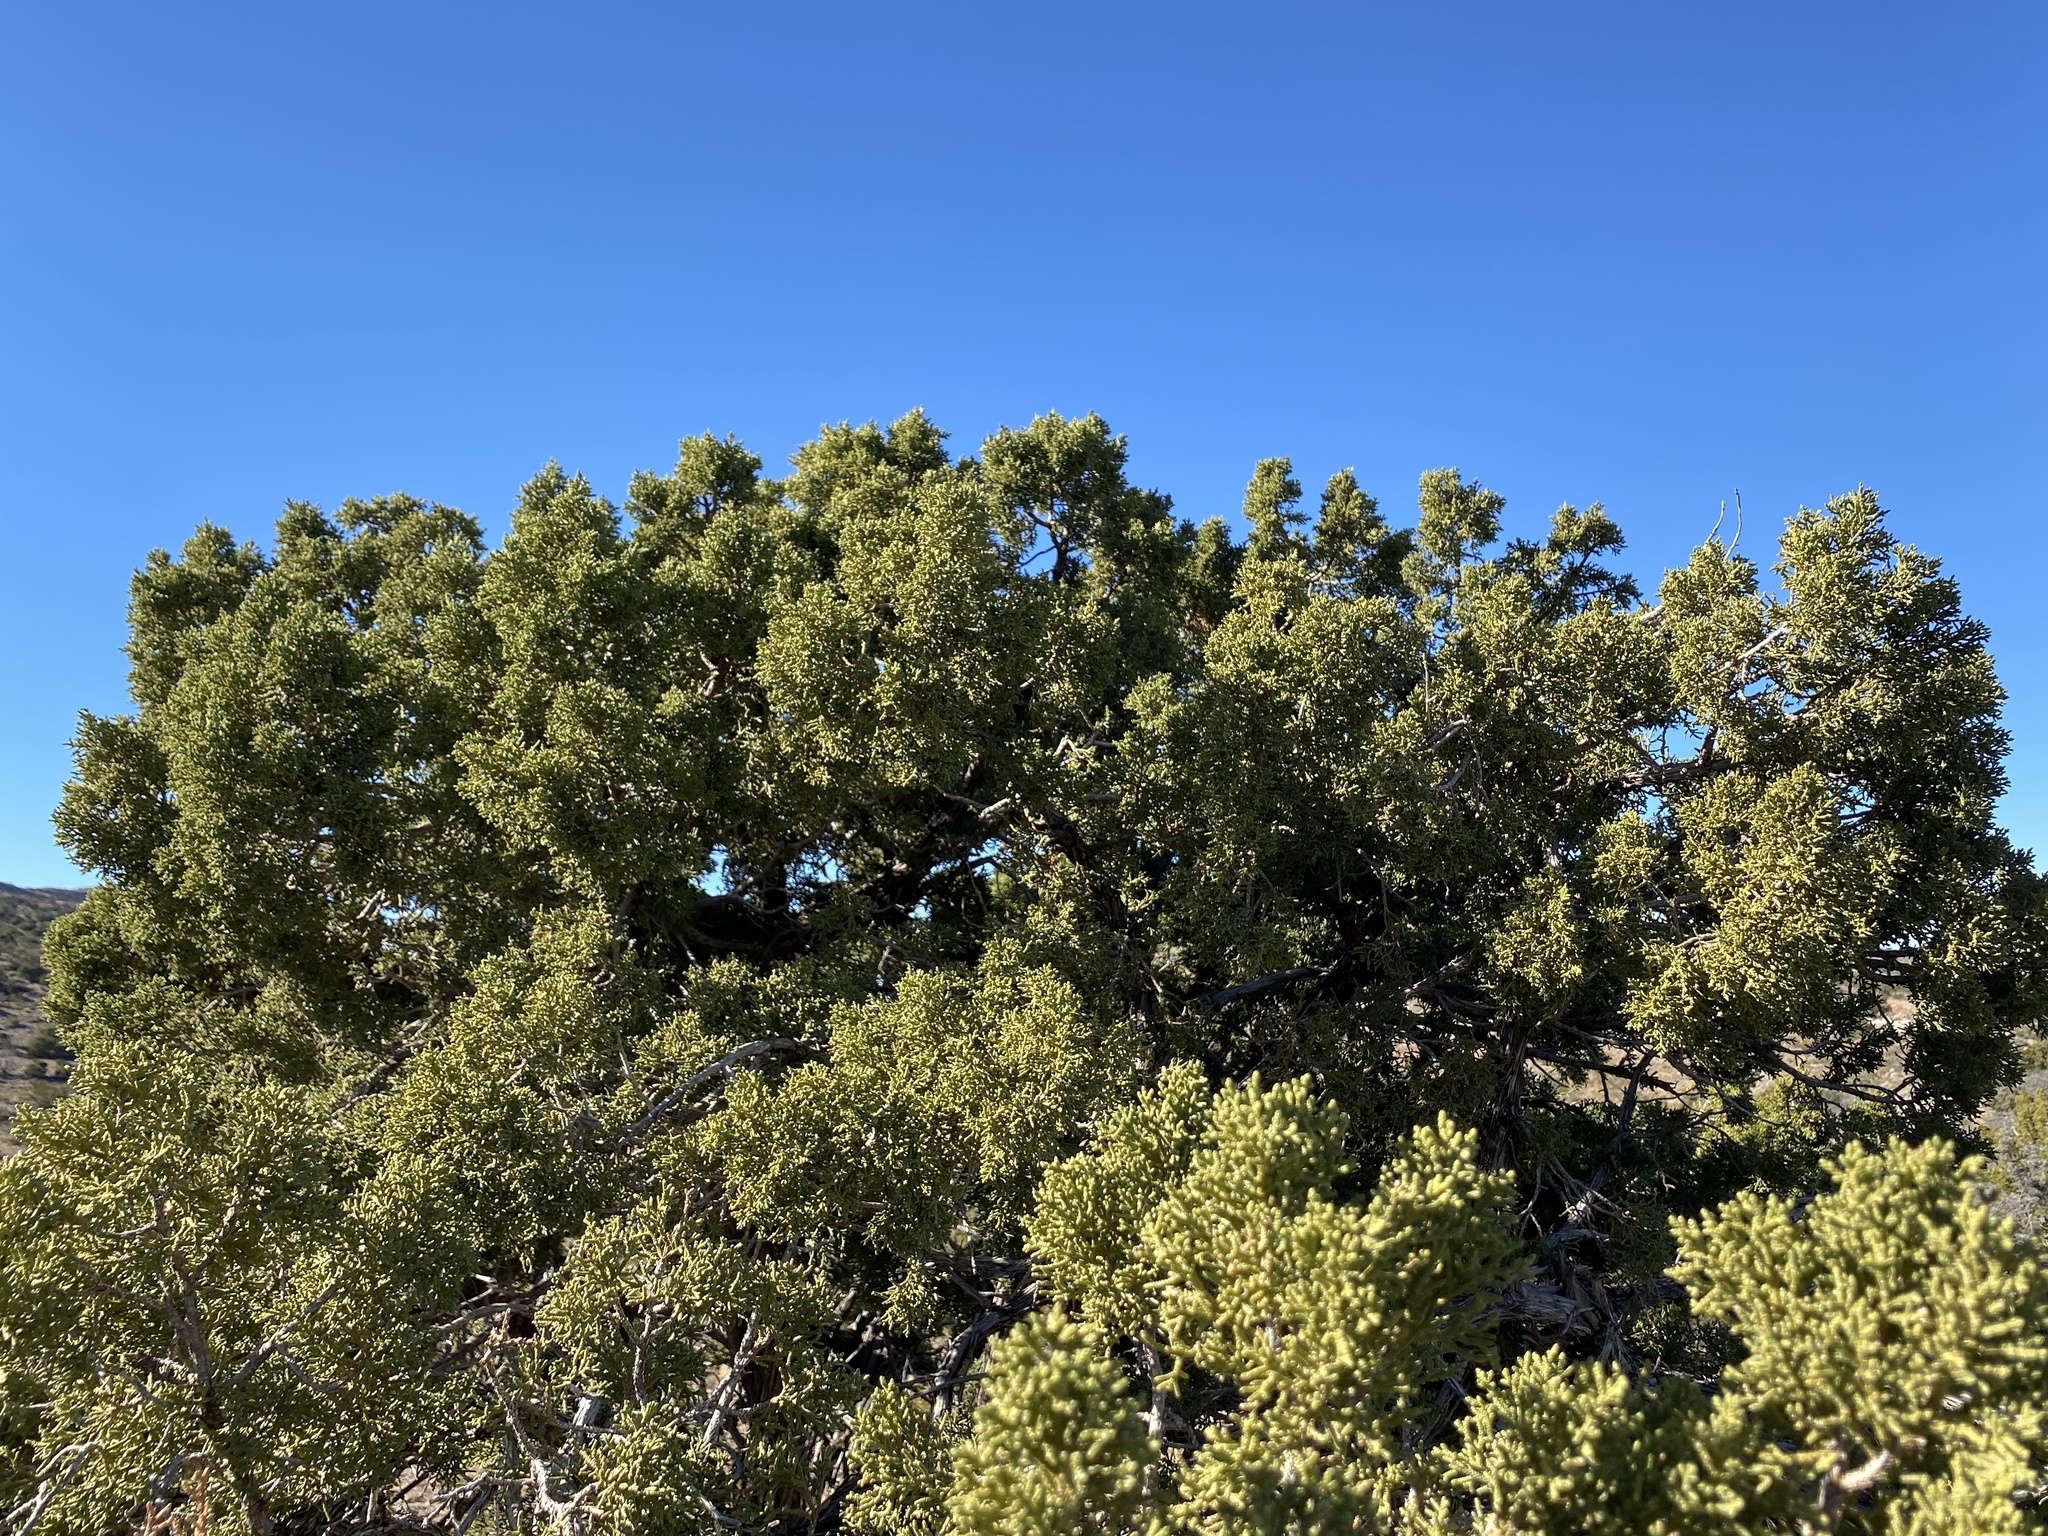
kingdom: Plantae
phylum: Tracheophyta
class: Pinopsida
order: Pinales
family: Cupressaceae
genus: Juniperus
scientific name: Juniperus monosperma
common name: One-seed juniper
